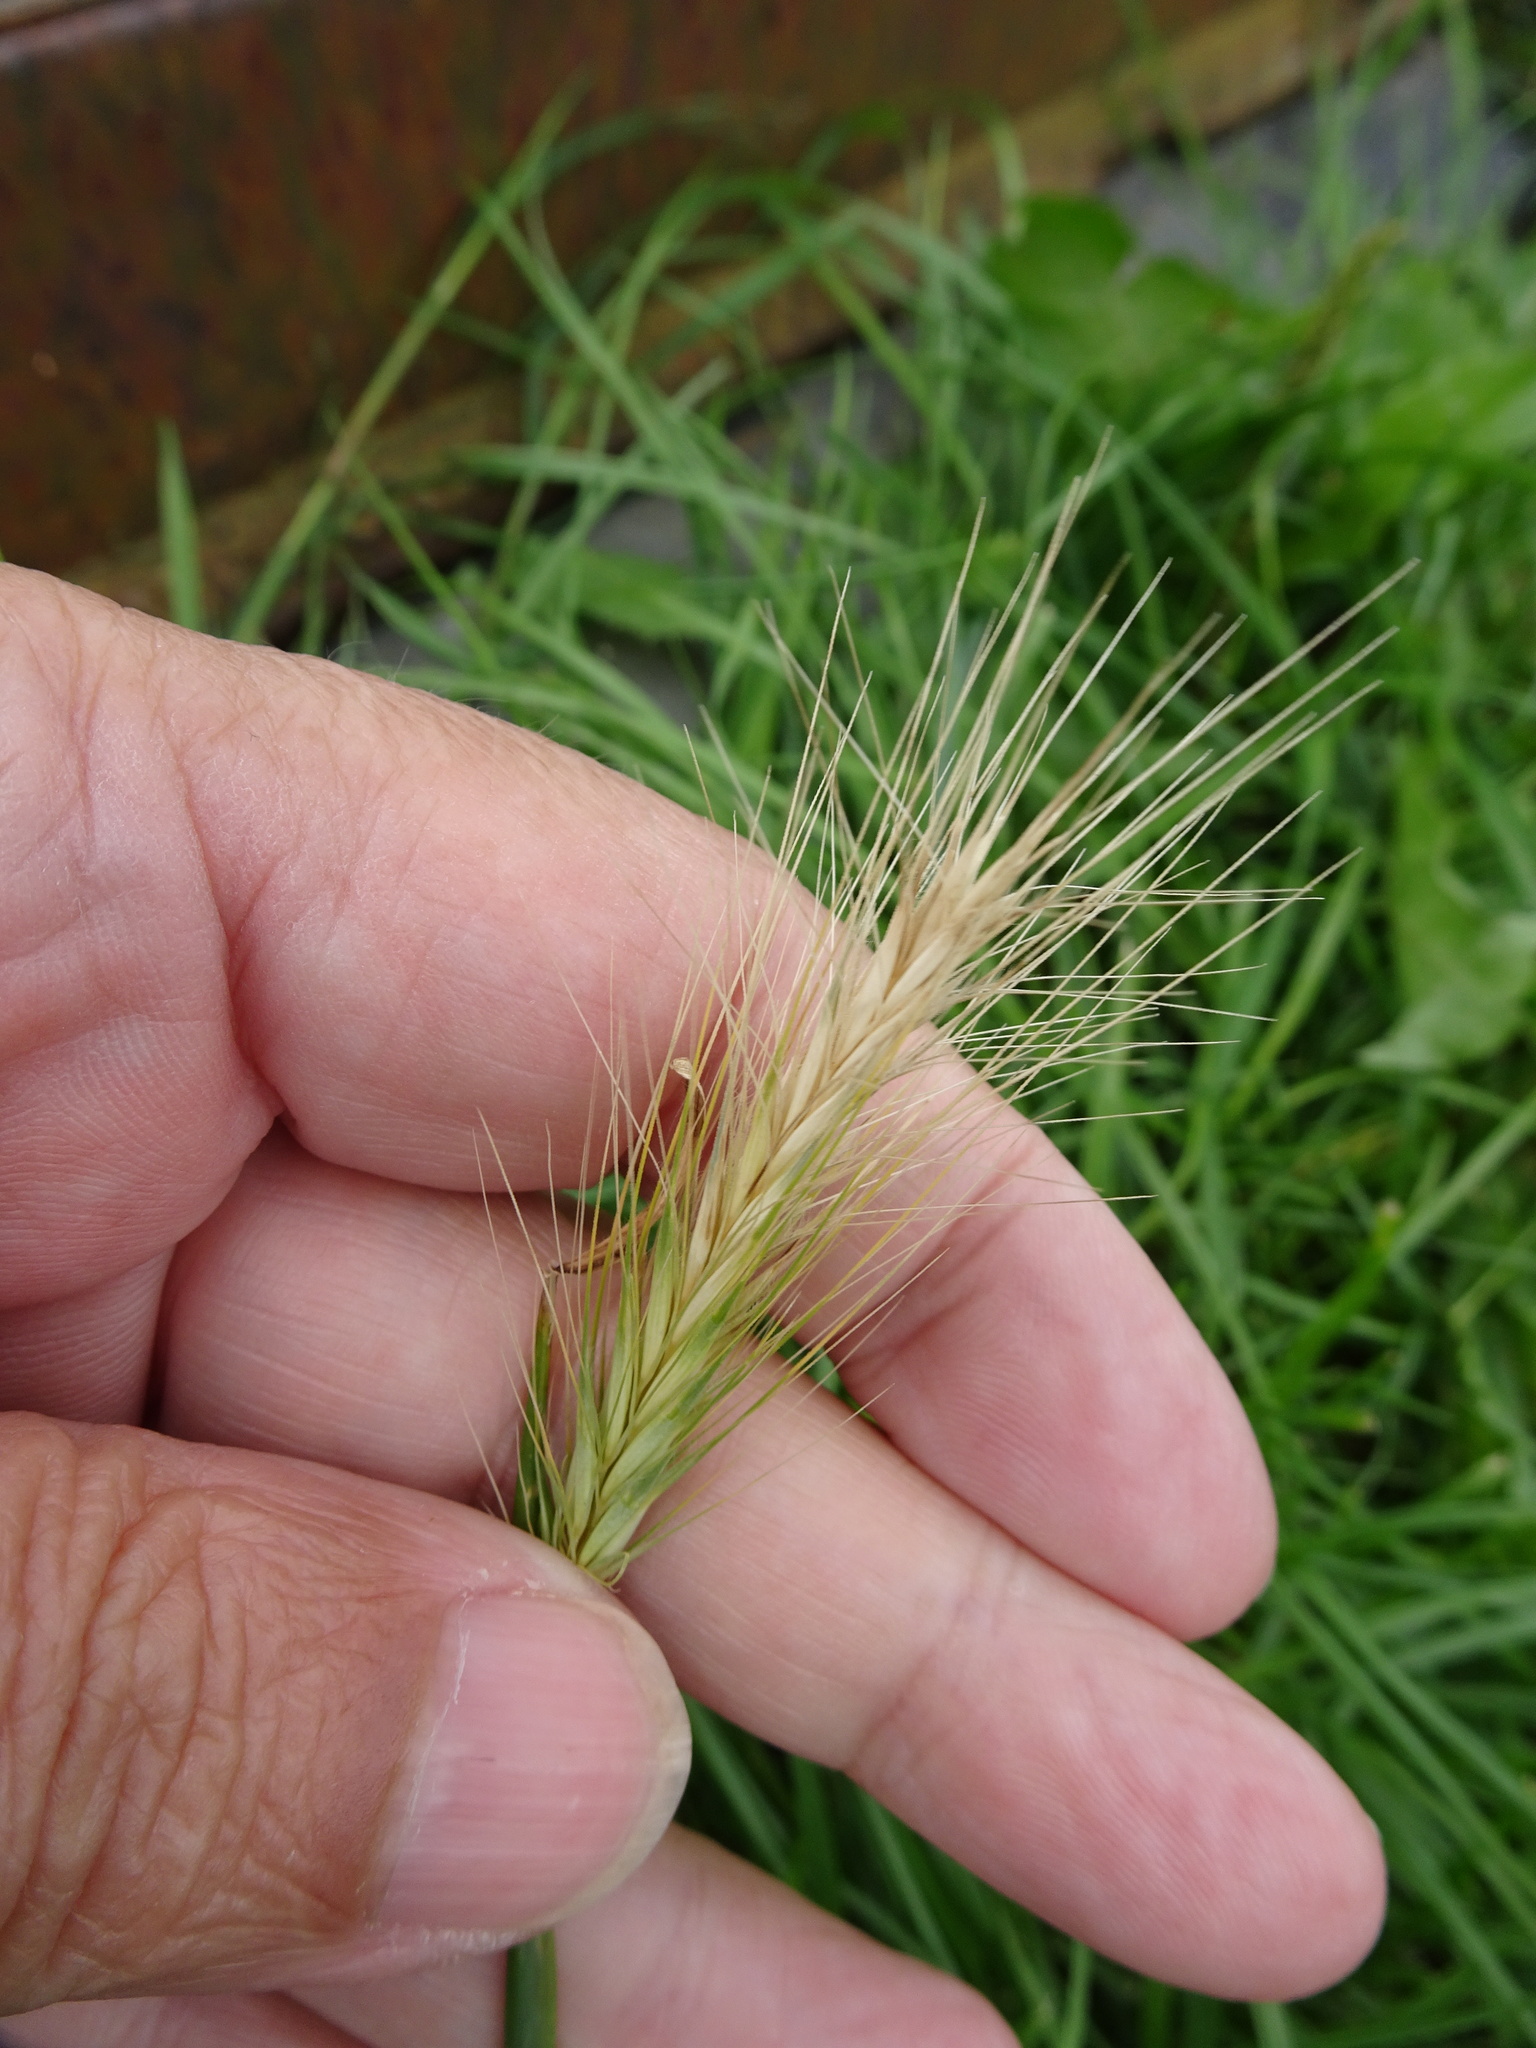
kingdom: Plantae
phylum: Tracheophyta
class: Liliopsida
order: Poales
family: Poaceae
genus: Hordeum
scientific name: Hordeum murinum
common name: Wall barley
